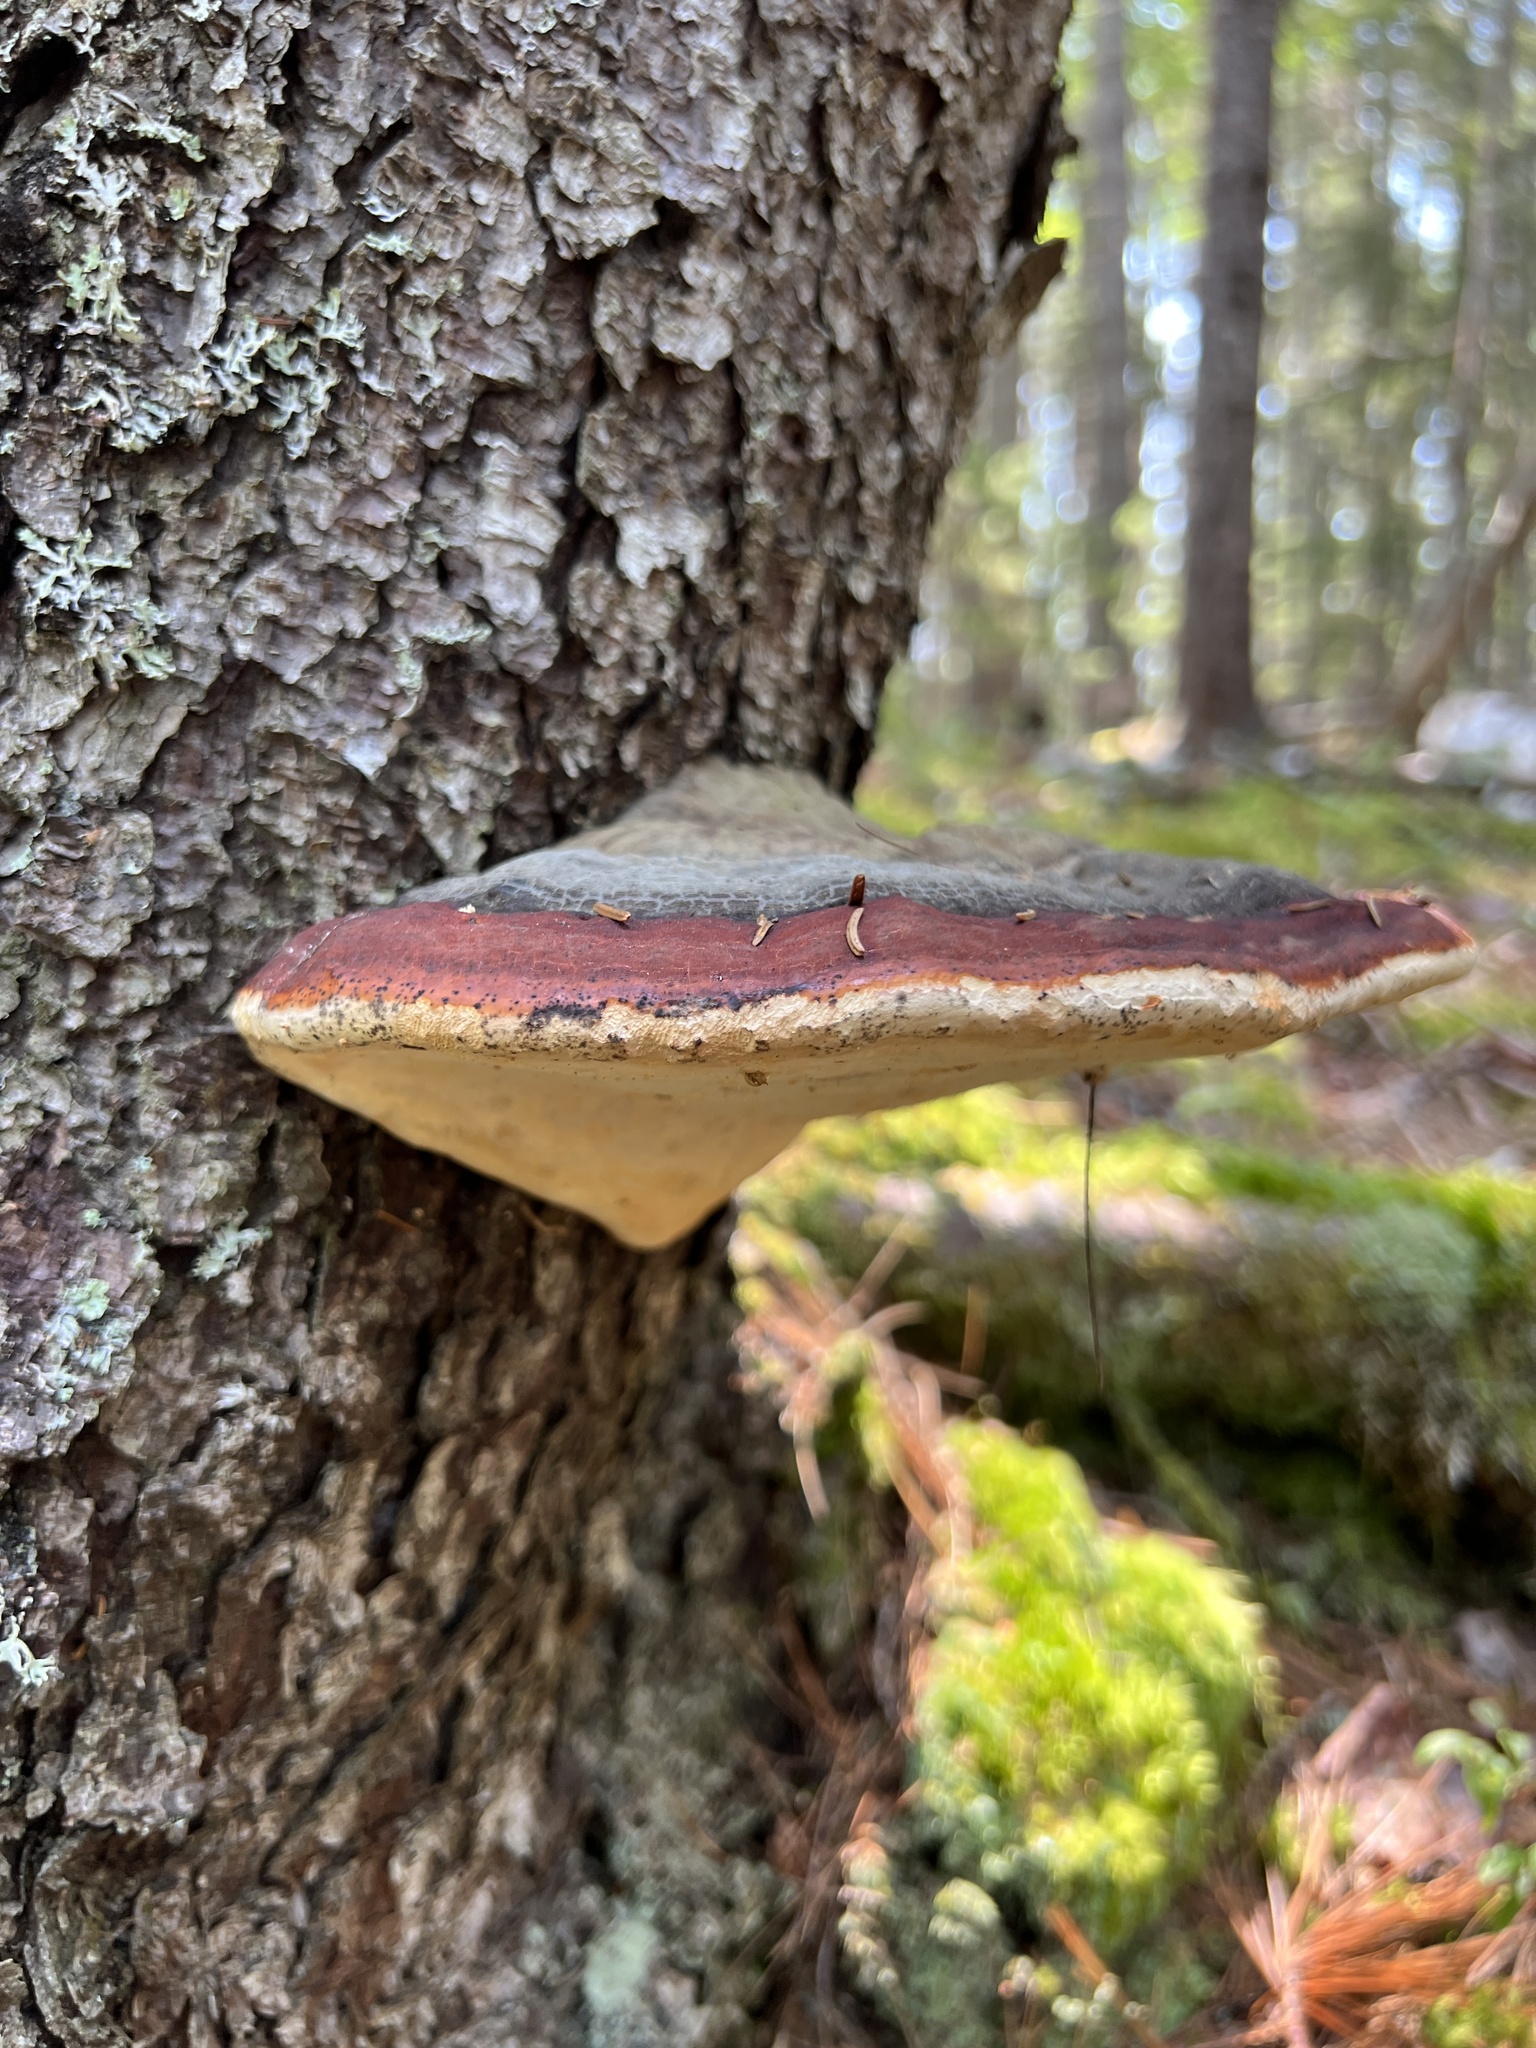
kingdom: Fungi
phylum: Basidiomycota
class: Agaricomycetes
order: Polyporales
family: Fomitopsidaceae
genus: Fomitopsis
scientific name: Fomitopsis mounceae
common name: Northern red belt
